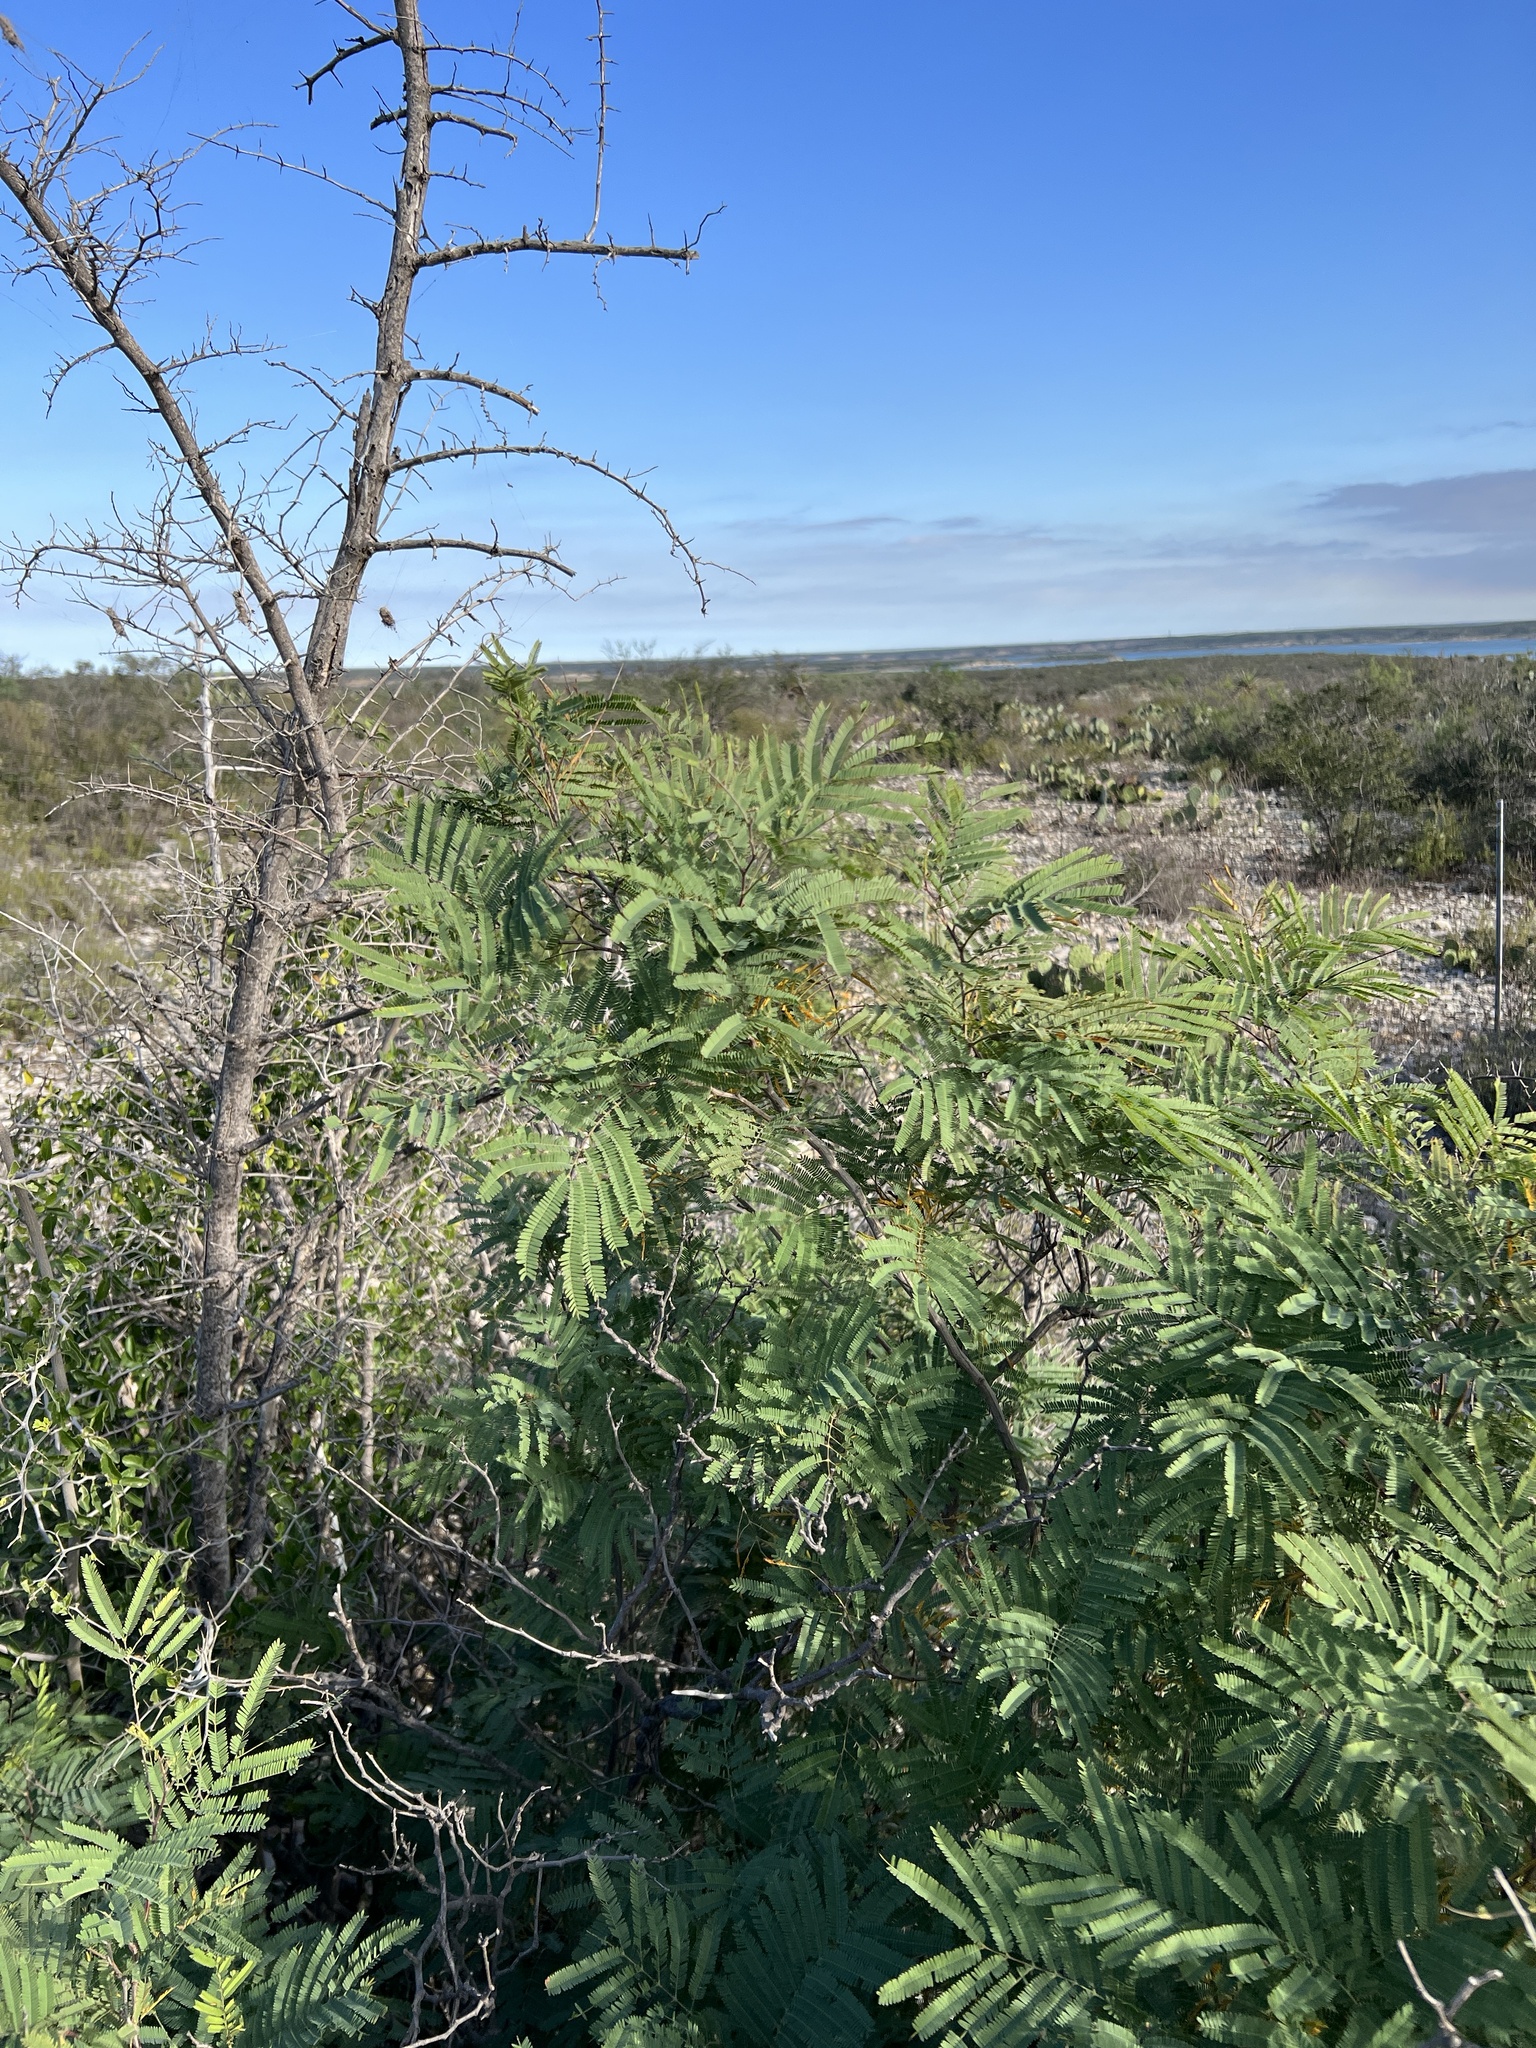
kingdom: Plantae
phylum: Tracheophyta
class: Magnoliopsida
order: Fabales
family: Fabaceae
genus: Senegalia
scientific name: Senegalia berlandieri
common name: Berlandier acacia
